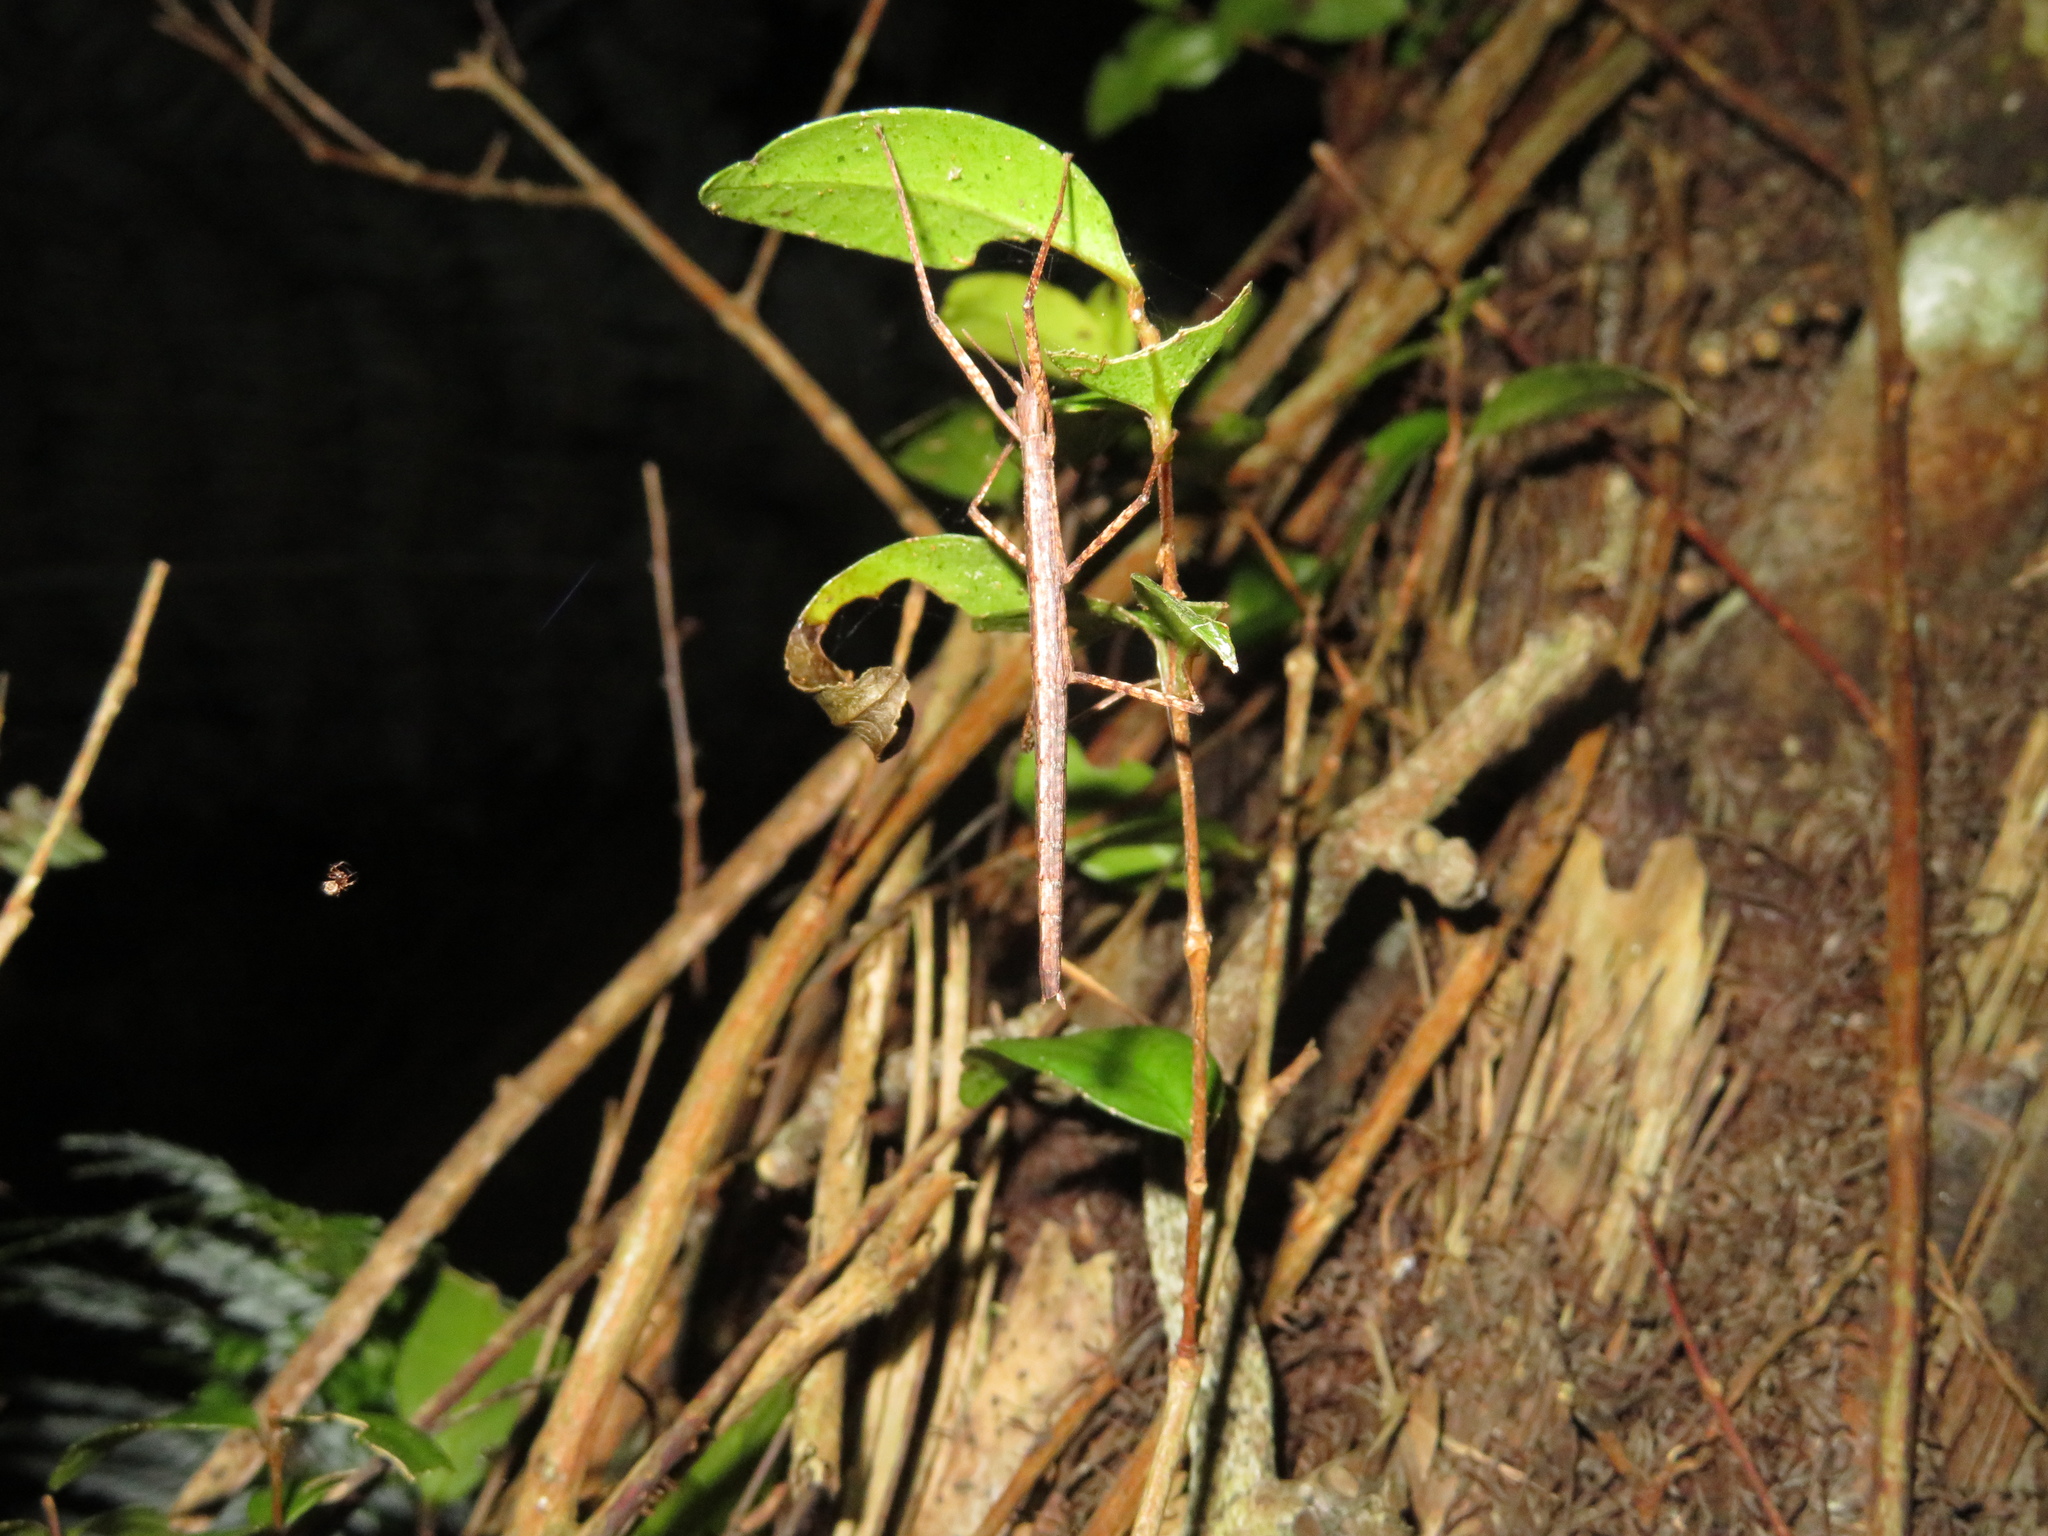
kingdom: Animalia
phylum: Arthropoda
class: Insecta
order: Phasmida
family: Phasmatidae
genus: Tectarchus
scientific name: Tectarchus huttoni
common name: The common ridge-backed stick insect
